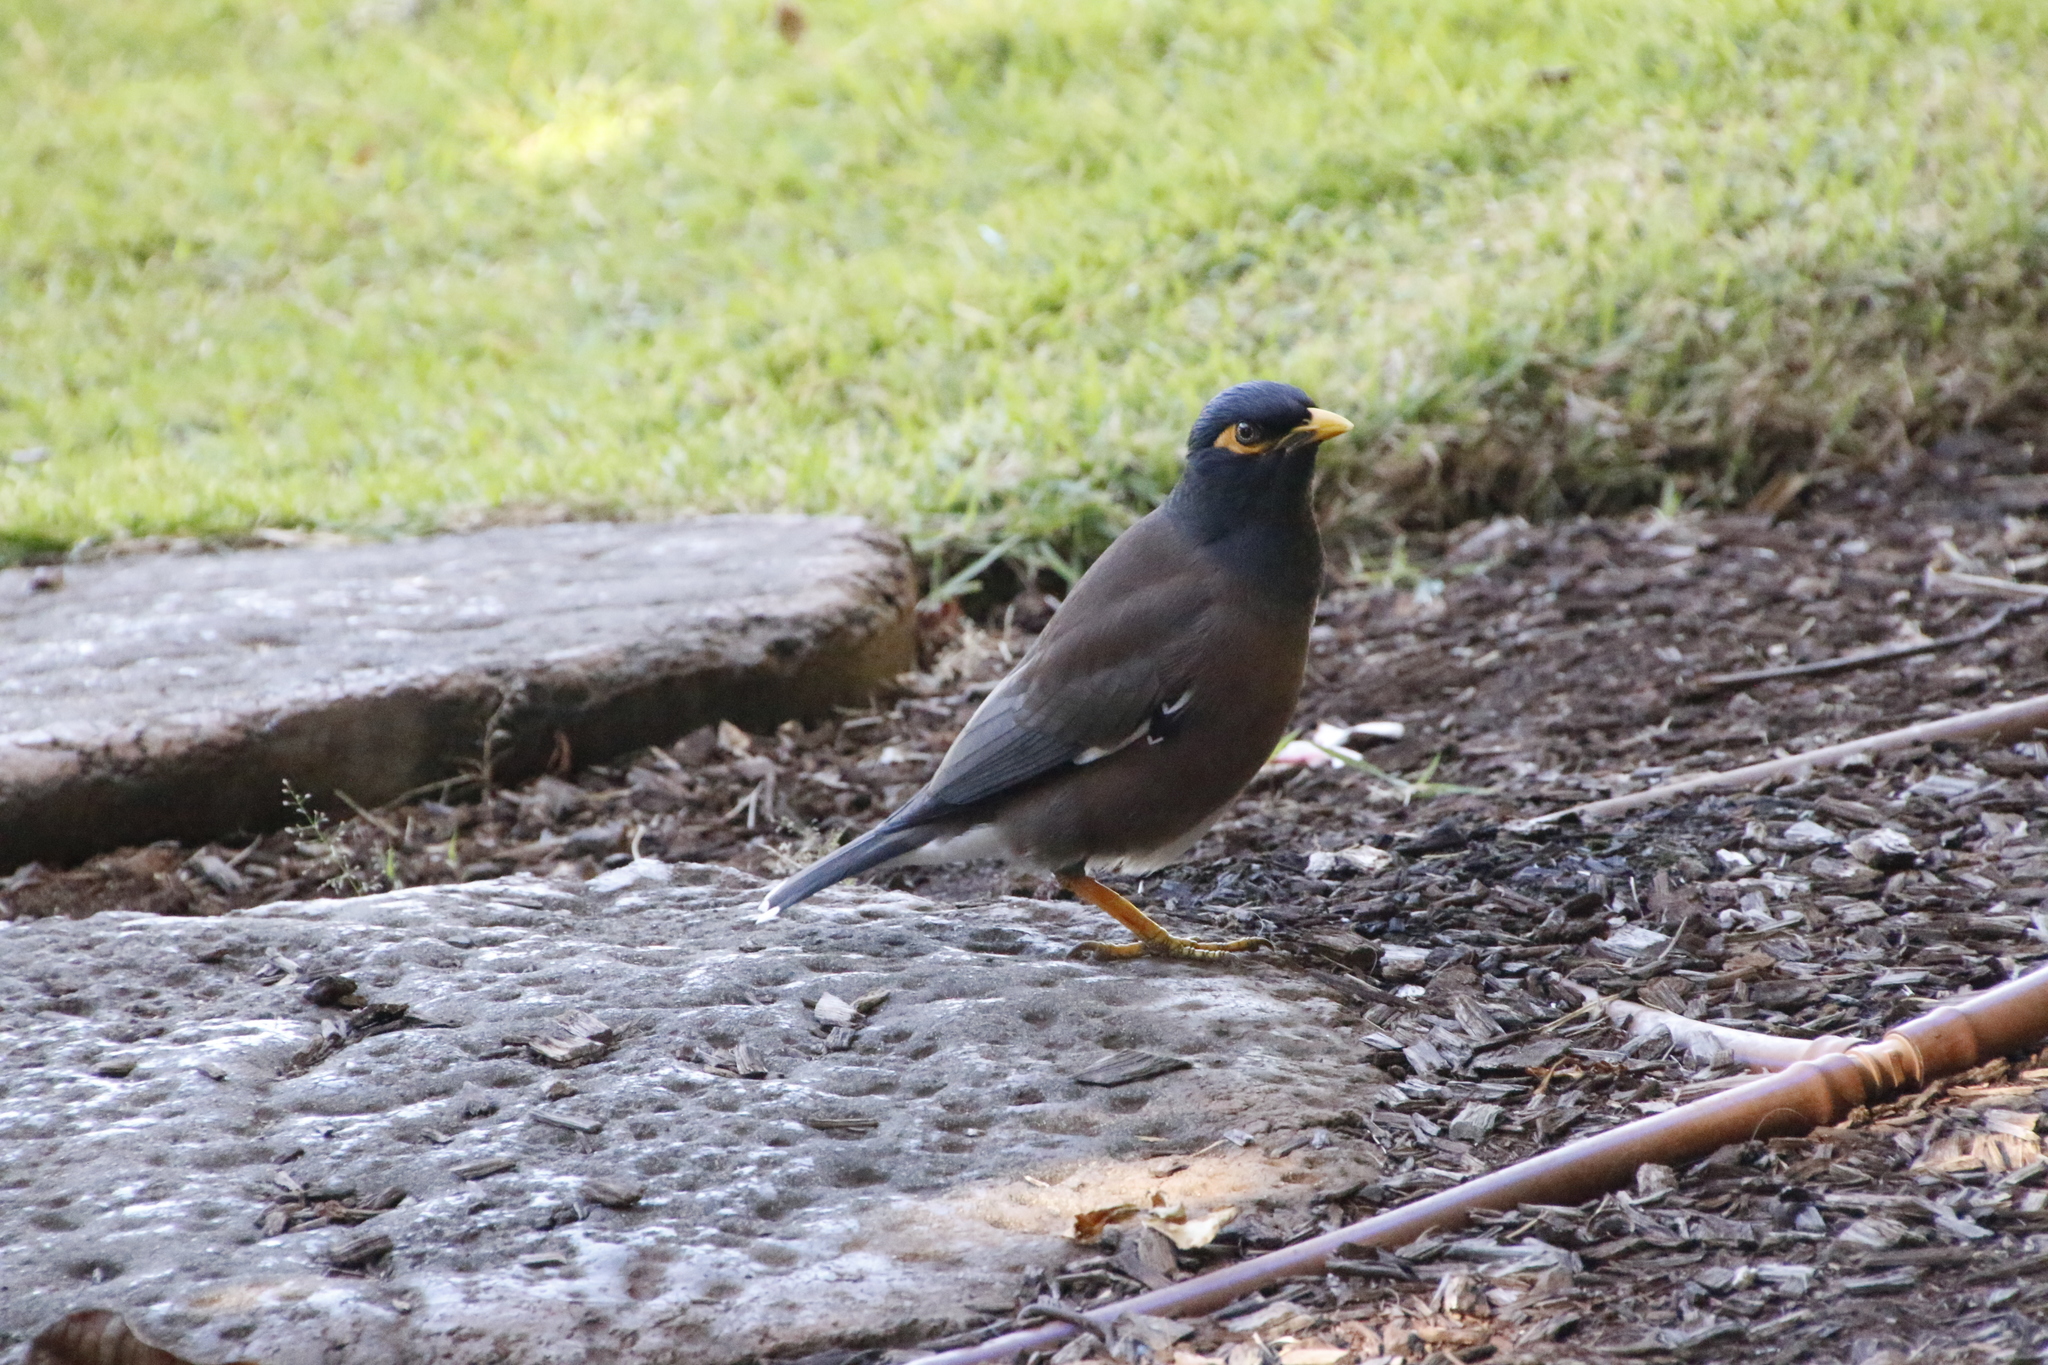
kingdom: Animalia
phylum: Chordata
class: Aves
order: Passeriformes
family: Sturnidae
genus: Acridotheres
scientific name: Acridotheres tristis
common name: Common myna
